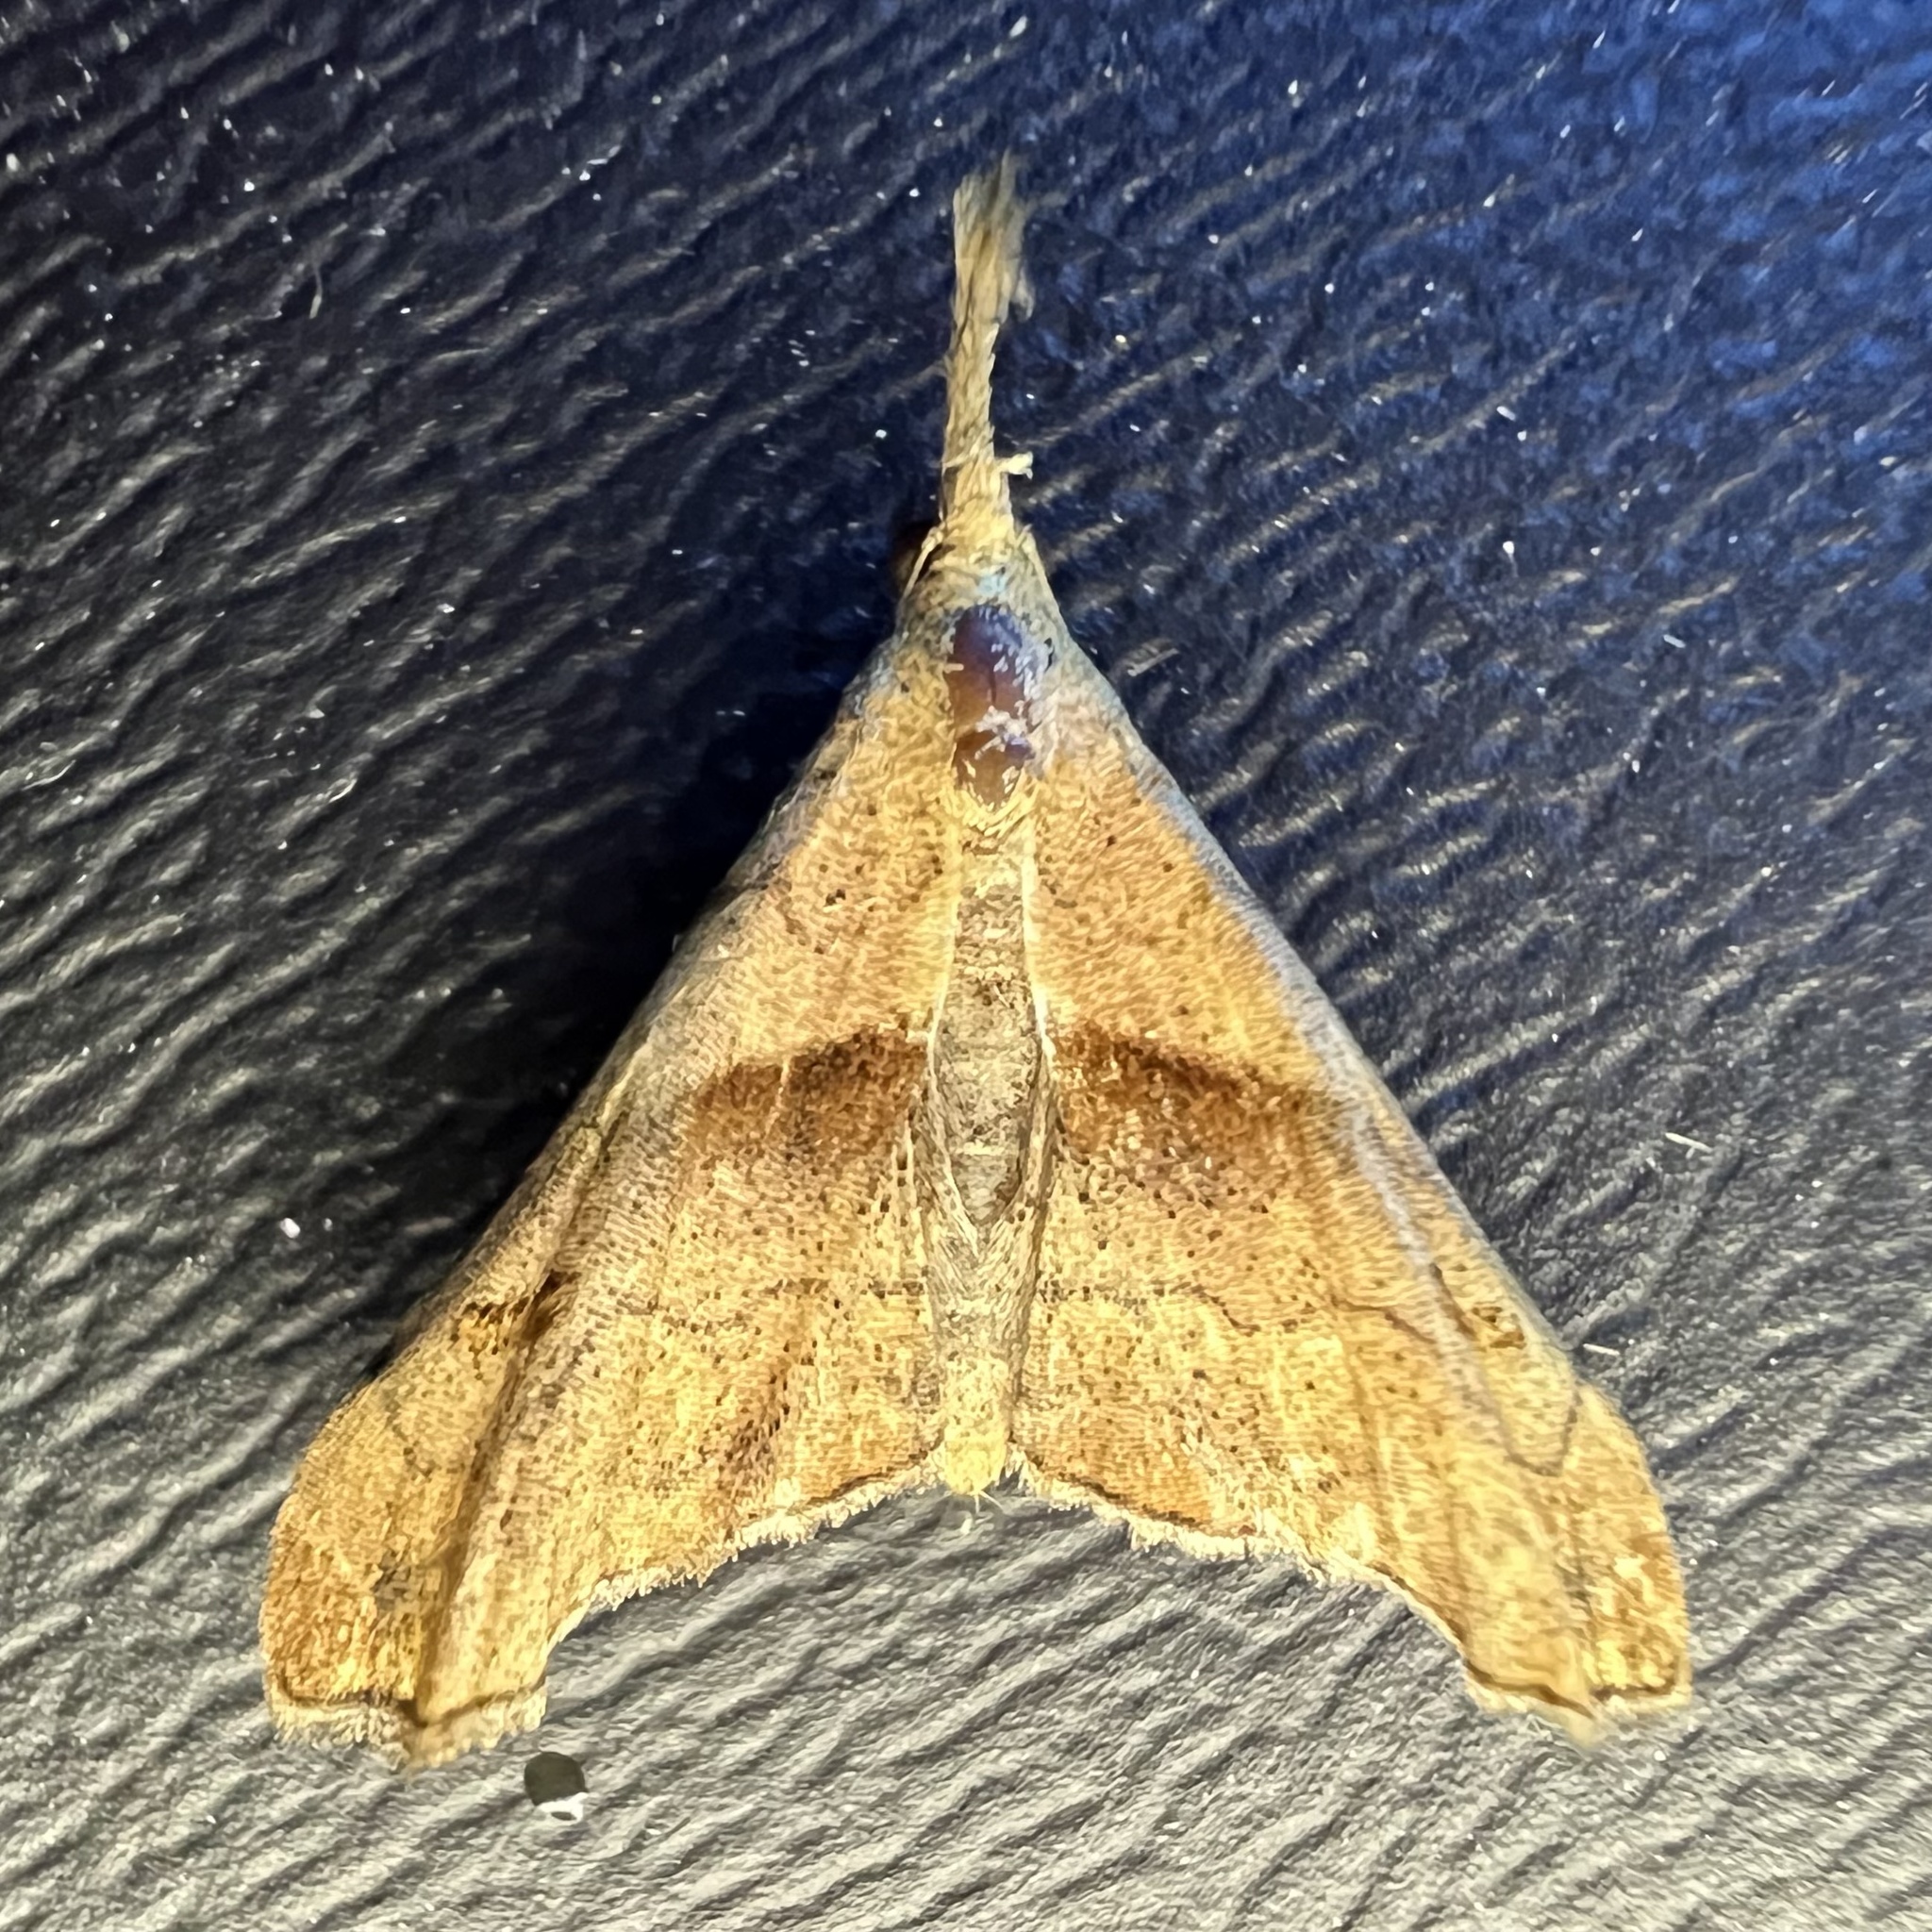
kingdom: Animalia
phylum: Arthropoda
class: Insecta
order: Lepidoptera
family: Erebidae
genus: Palthis
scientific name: Palthis angulalis
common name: Dark-spotted palthis moth
